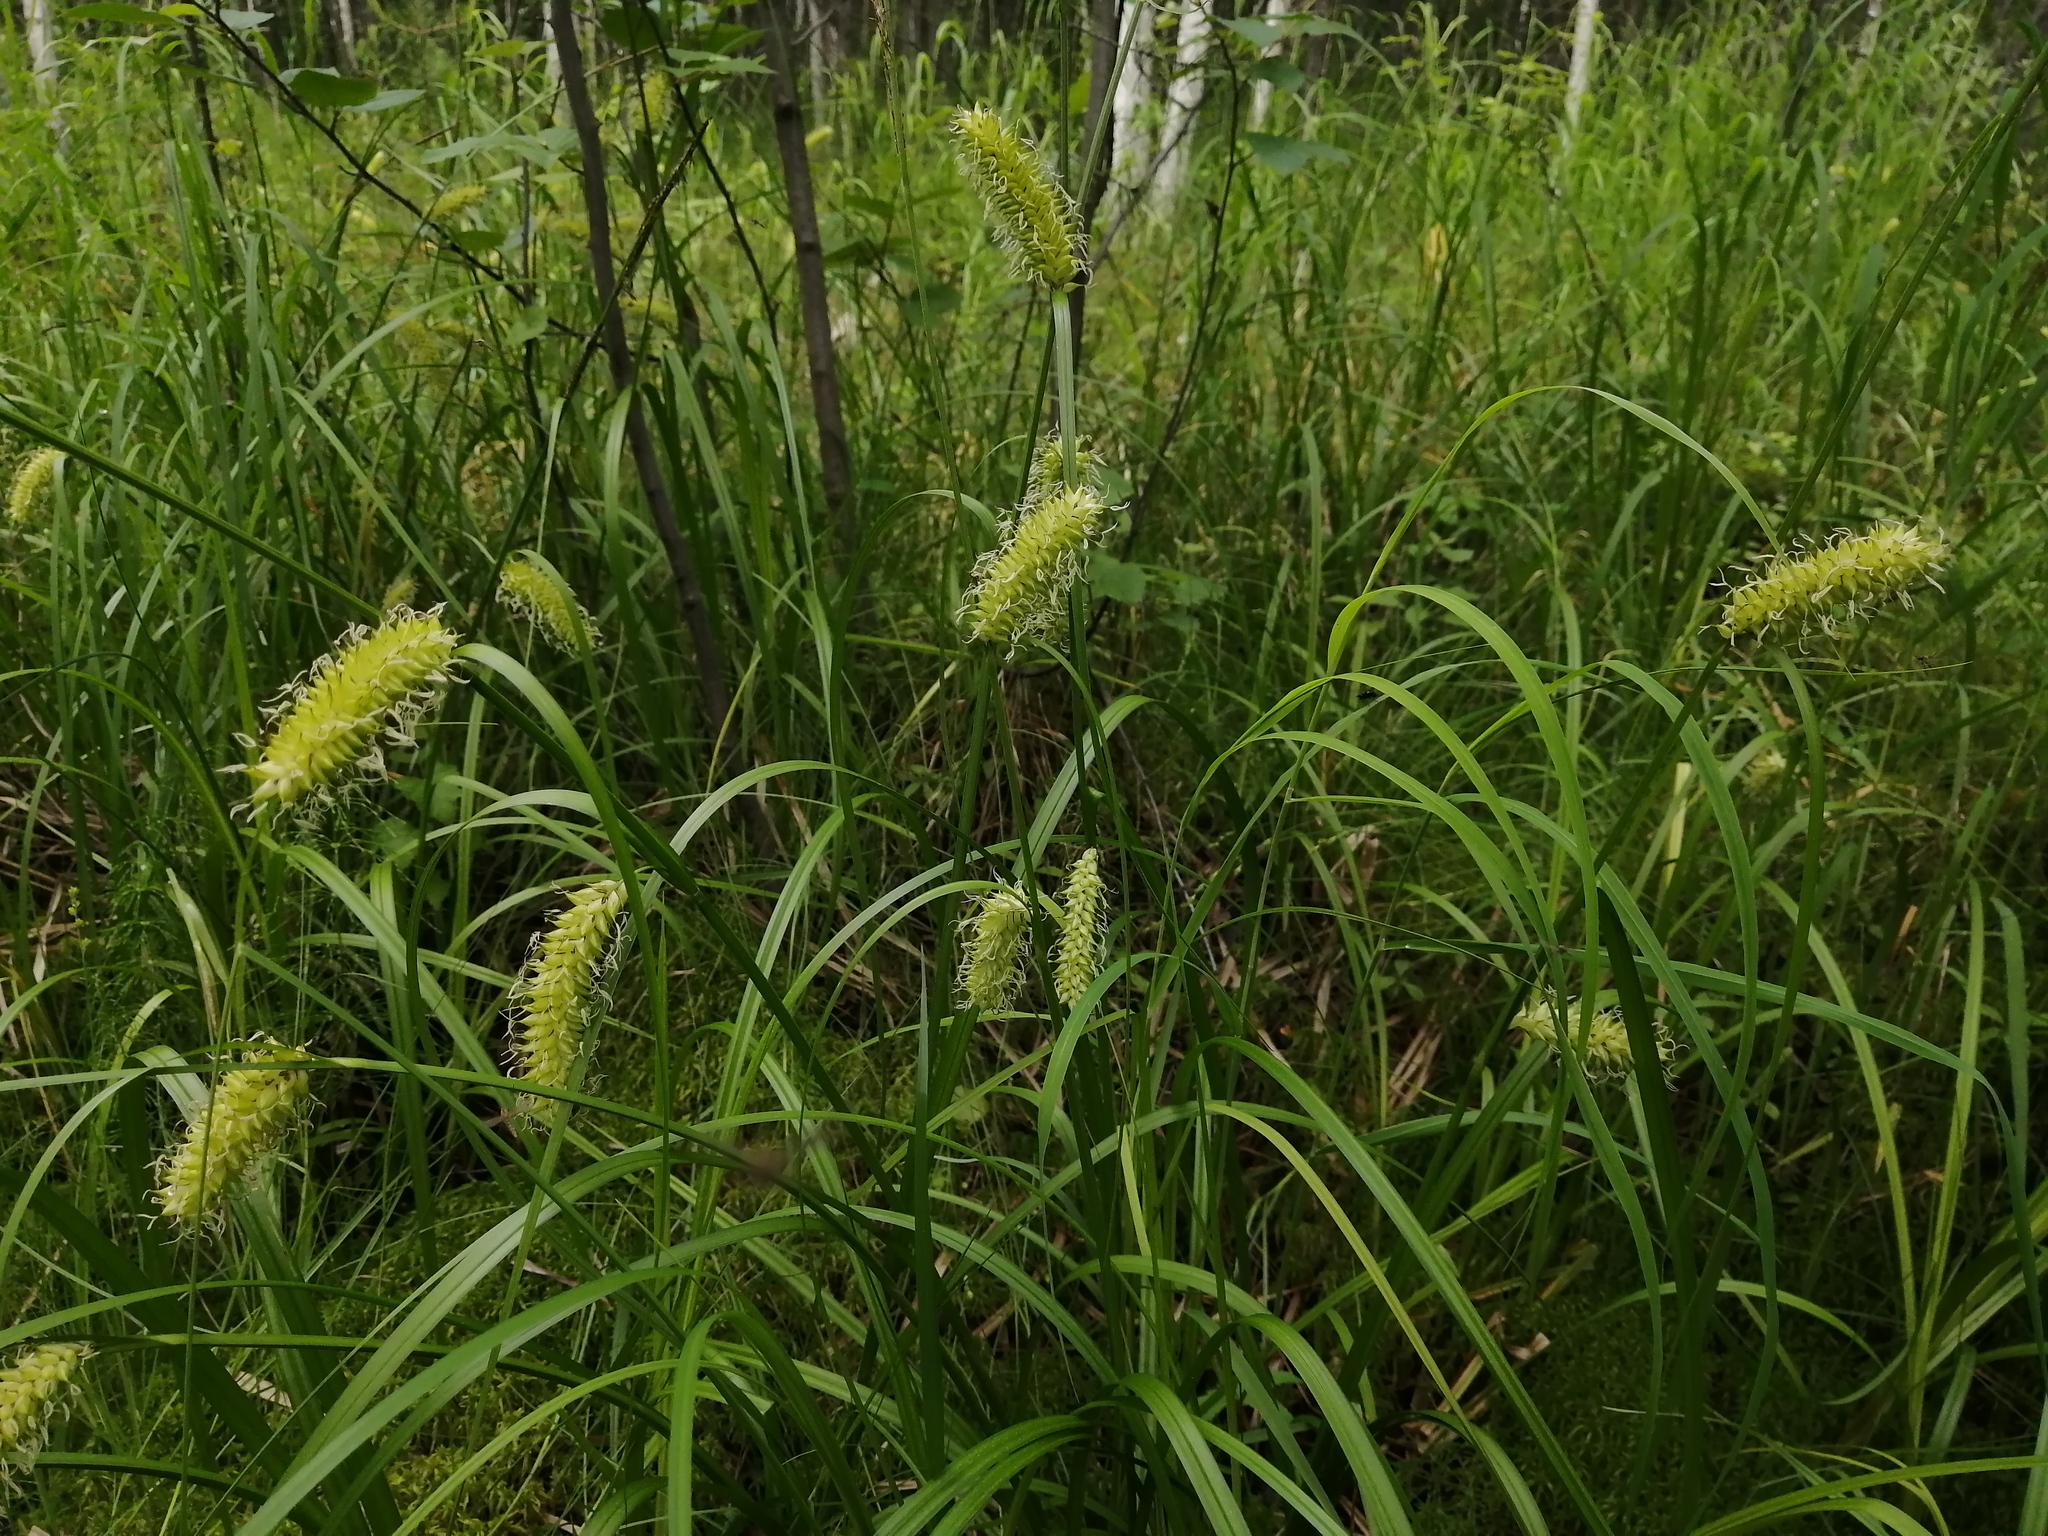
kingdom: Plantae
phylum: Tracheophyta
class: Liliopsida
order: Poales
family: Cyperaceae
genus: Carex
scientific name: Carex vesicaria
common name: Bladder-sedge
